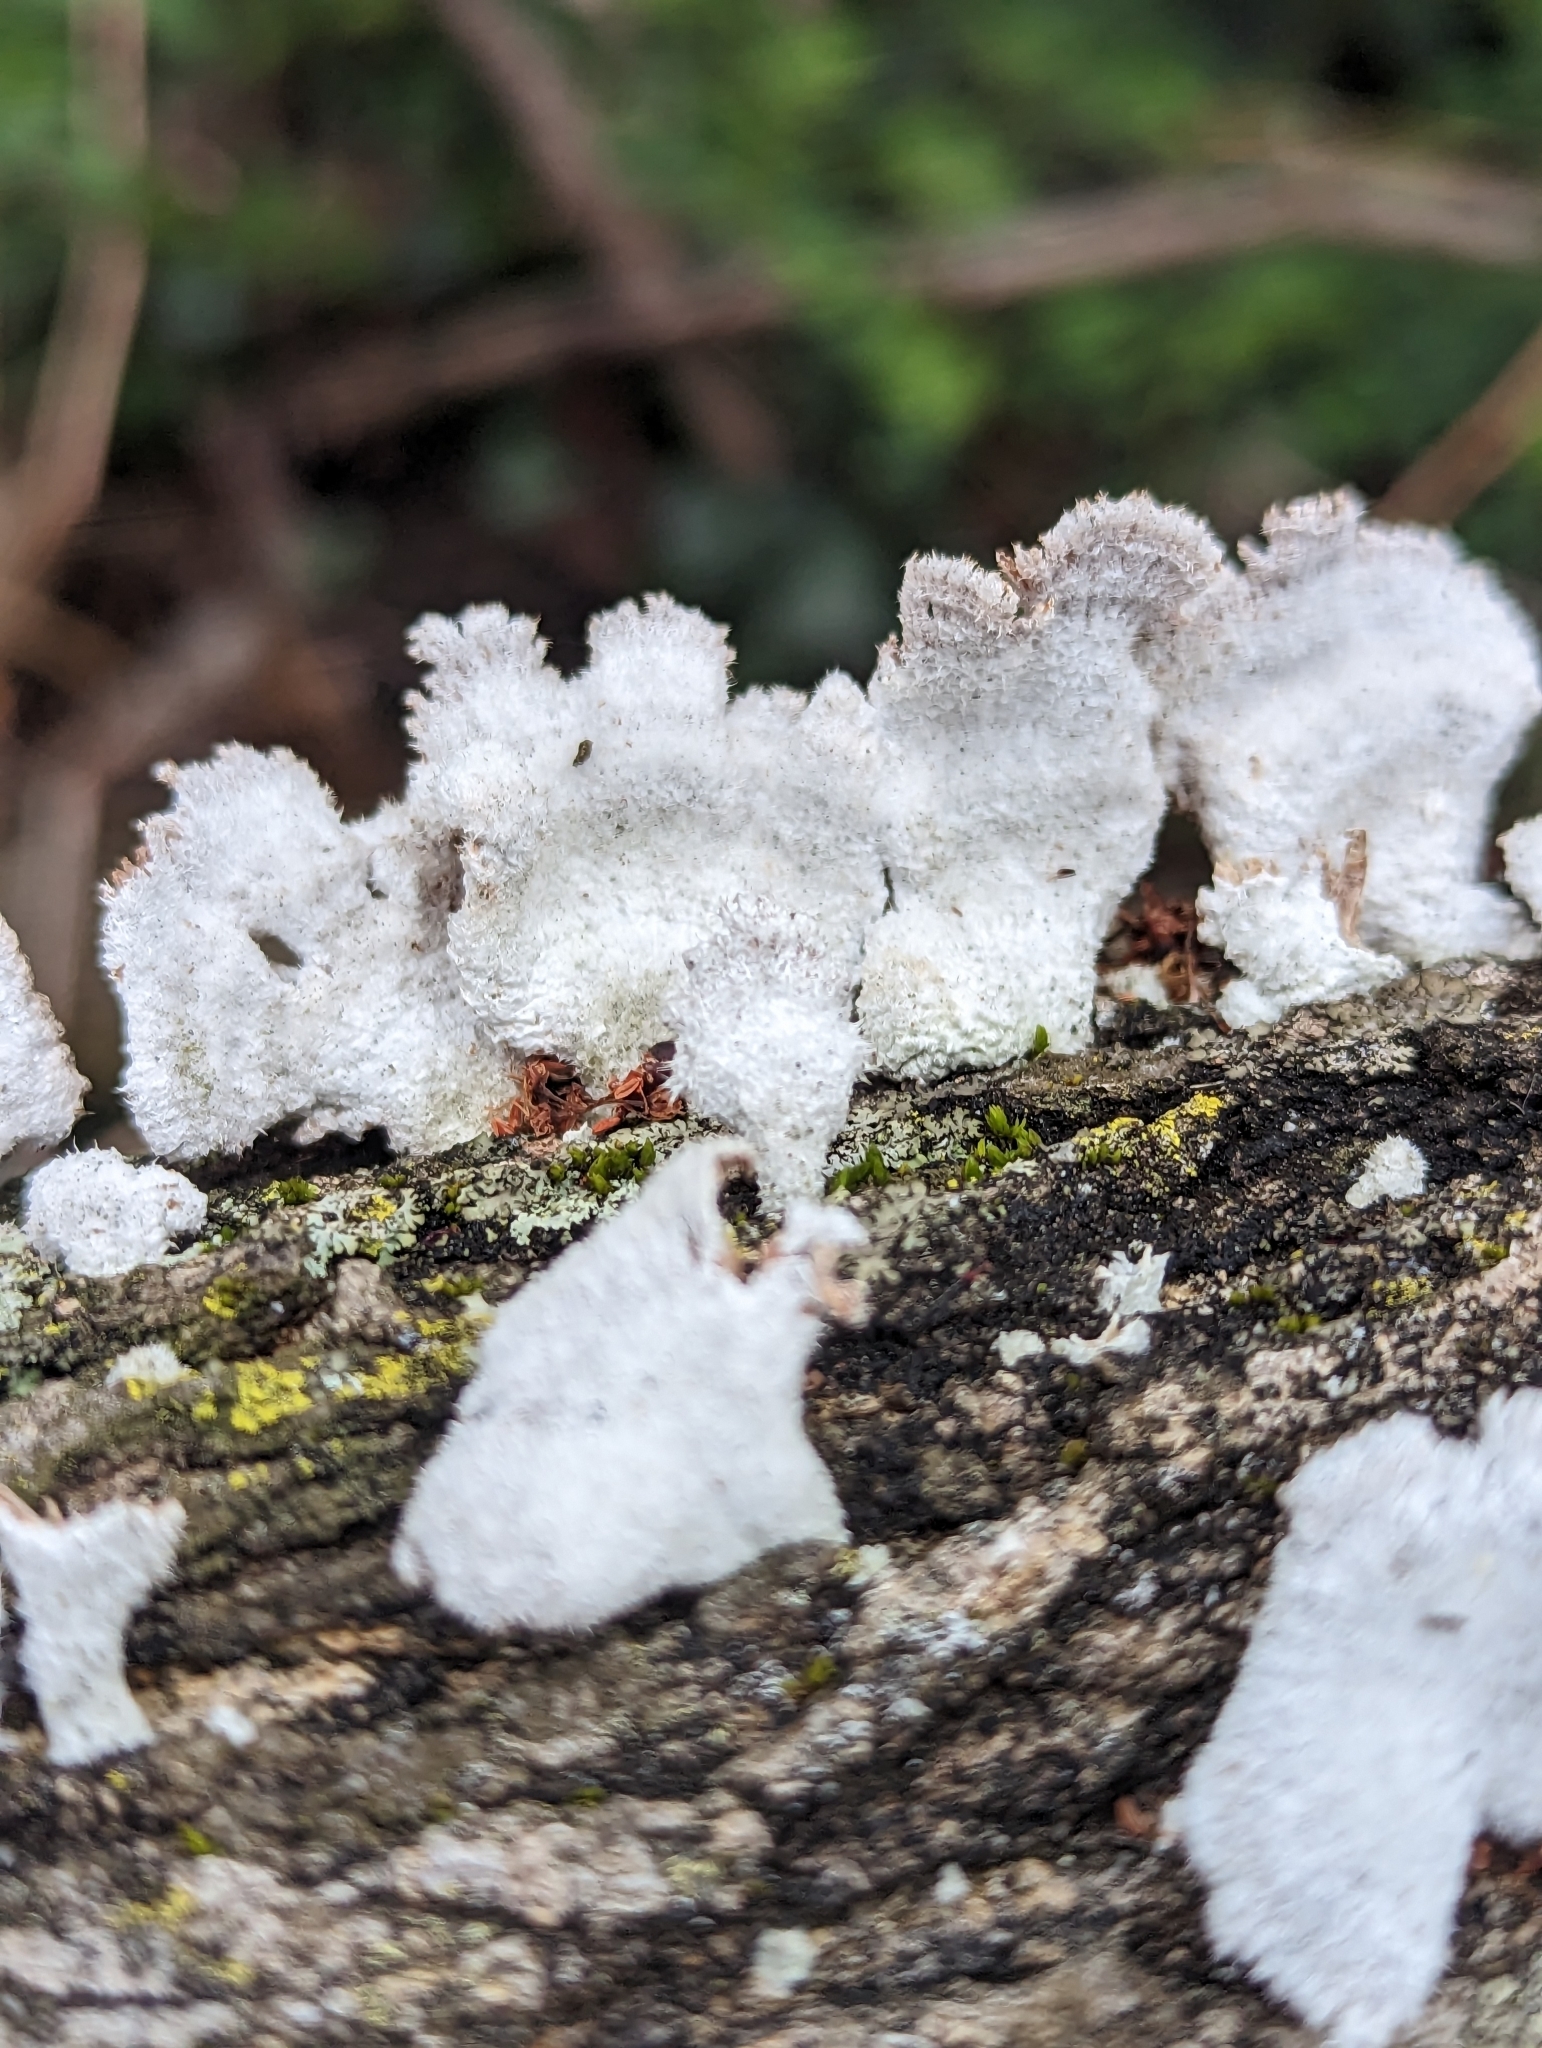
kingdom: Fungi
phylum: Basidiomycota
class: Agaricomycetes
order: Agaricales
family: Schizophyllaceae
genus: Schizophyllum
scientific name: Schizophyllum commune
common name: Common porecrust
